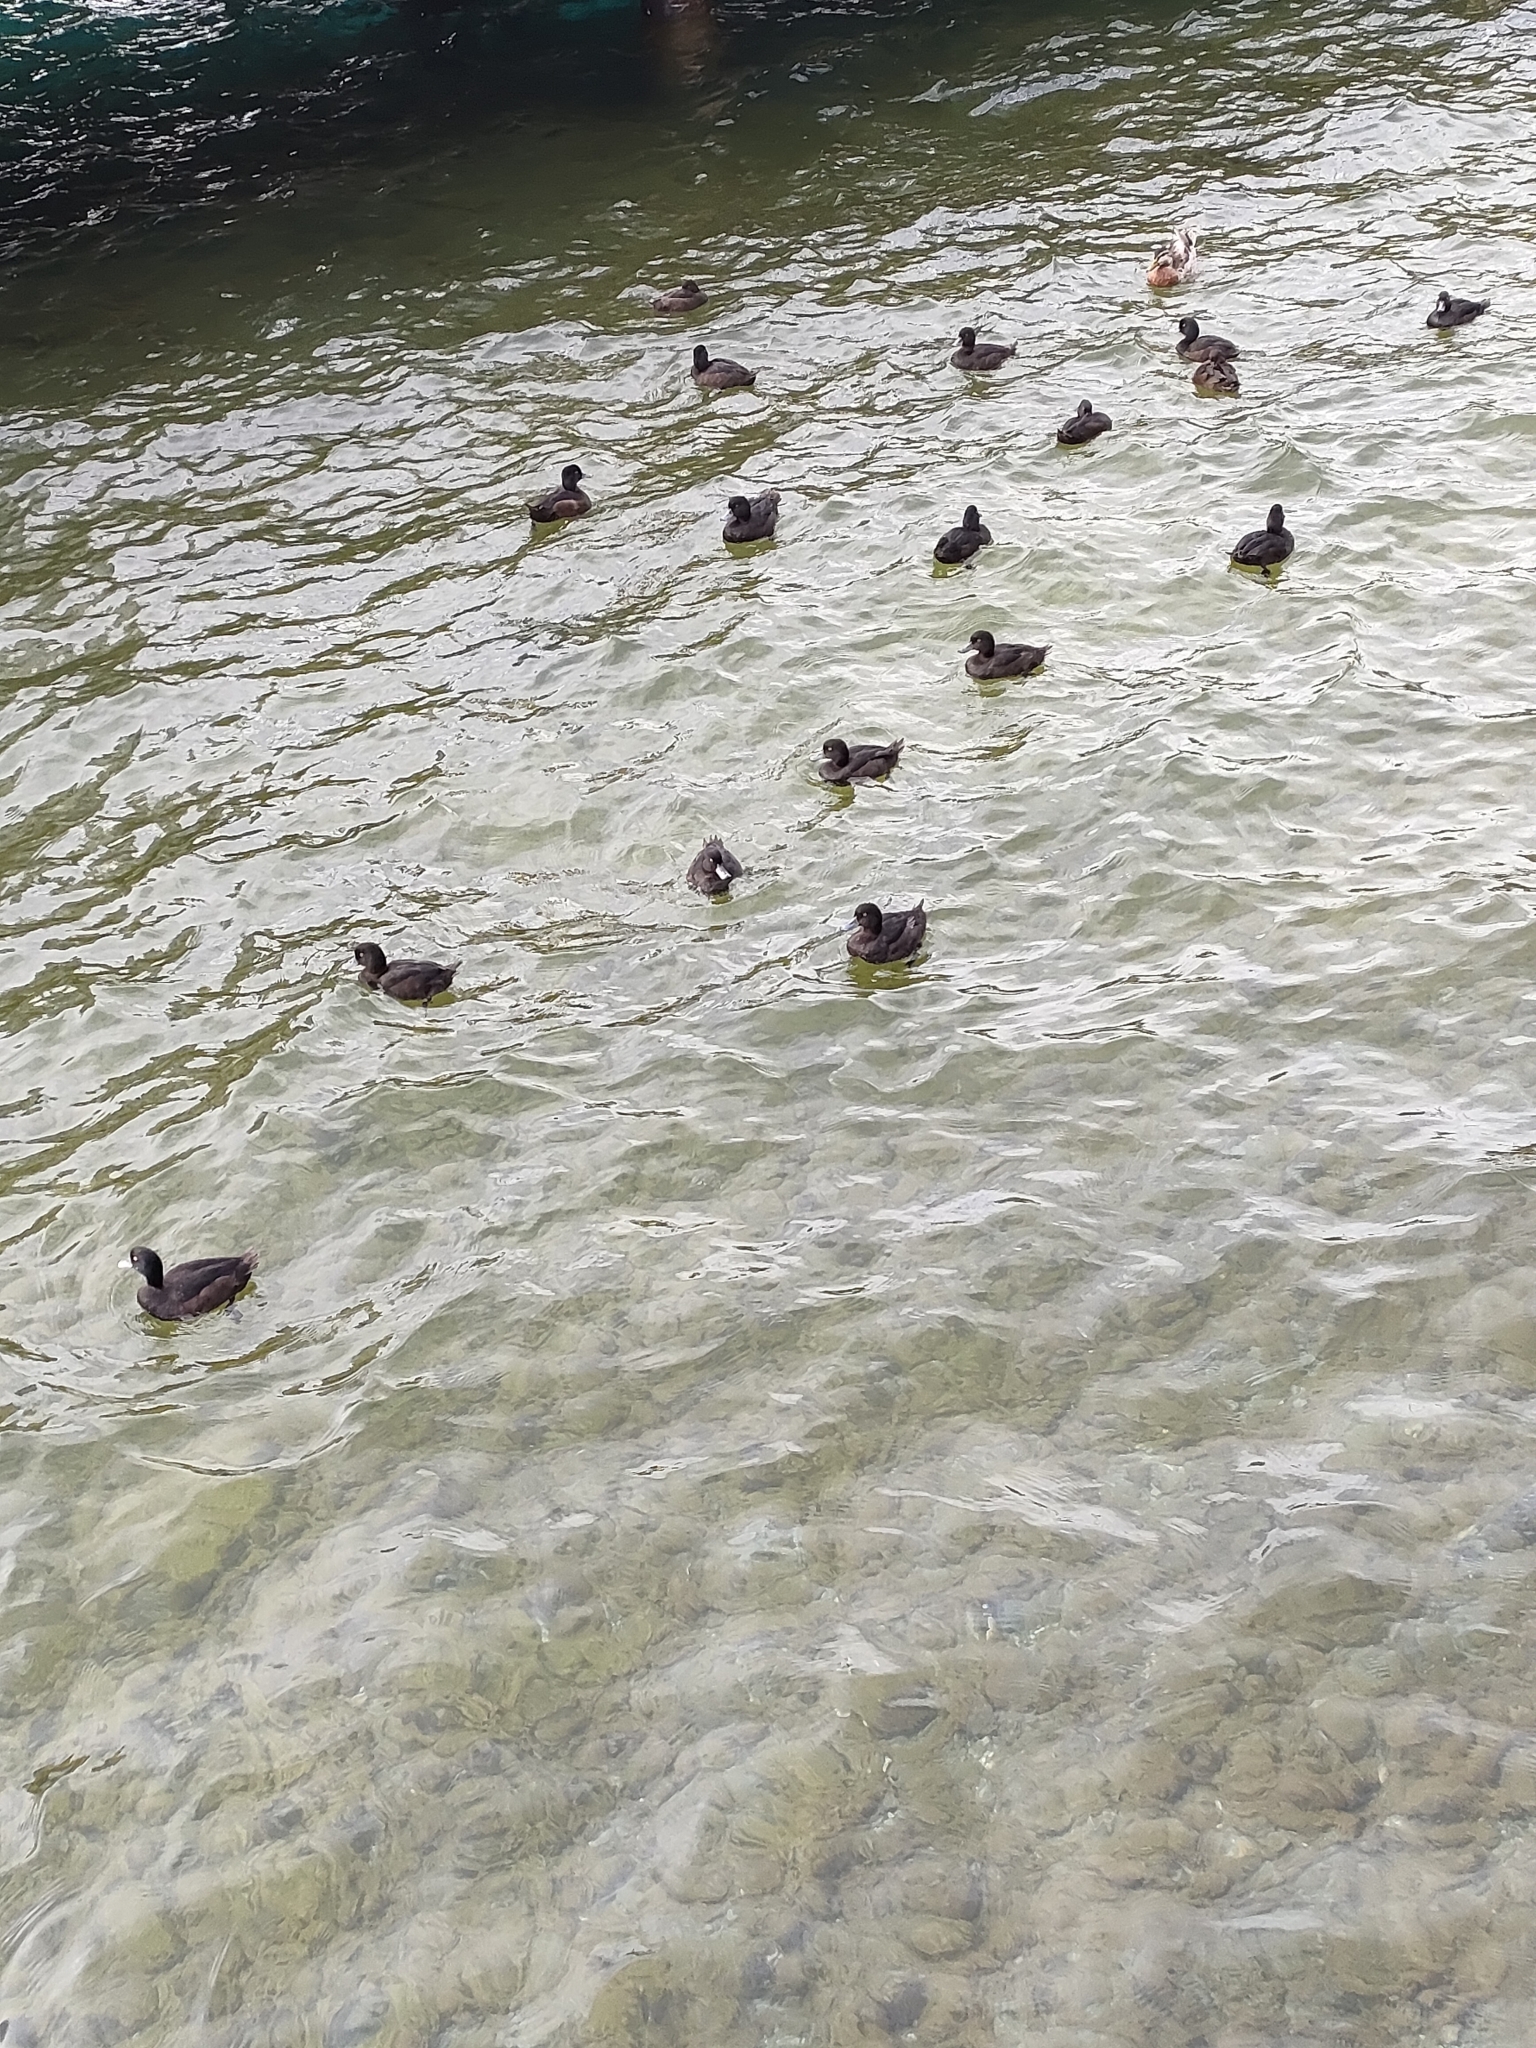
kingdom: Animalia
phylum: Chordata
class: Aves
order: Anseriformes
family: Anatidae
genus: Aythya
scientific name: Aythya novaeseelandiae
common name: New zealand scaup
